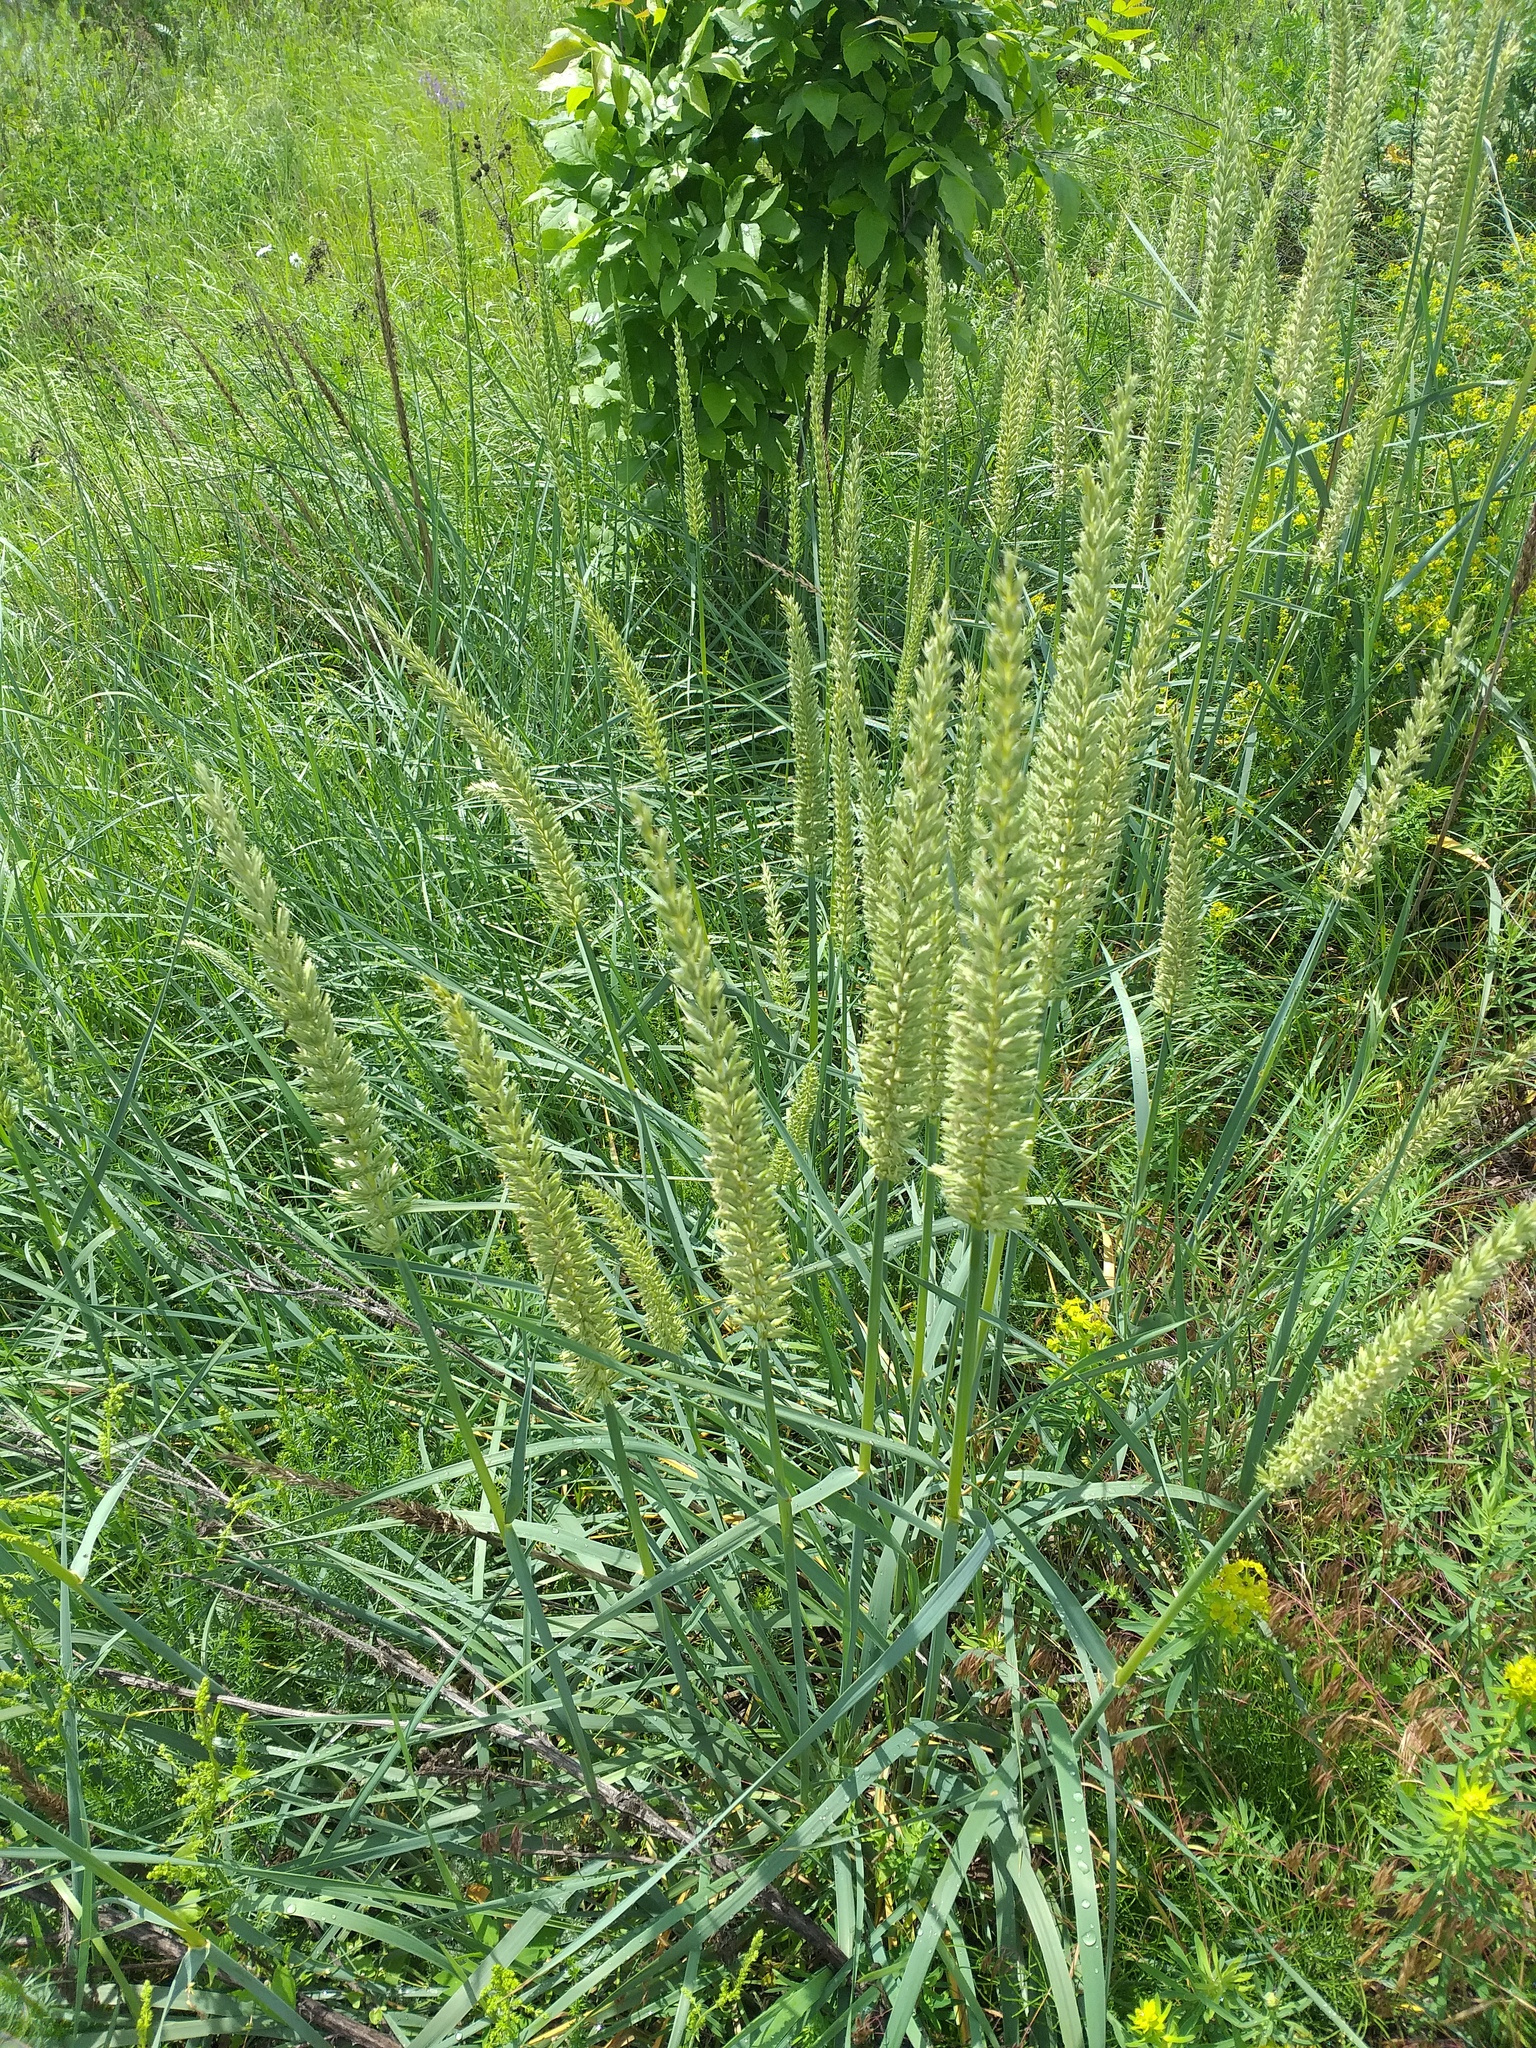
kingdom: Plantae
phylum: Tracheophyta
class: Liliopsida
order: Poales
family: Poaceae
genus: Leymus
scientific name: Leymus racemosus
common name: Mammoth wildrye
